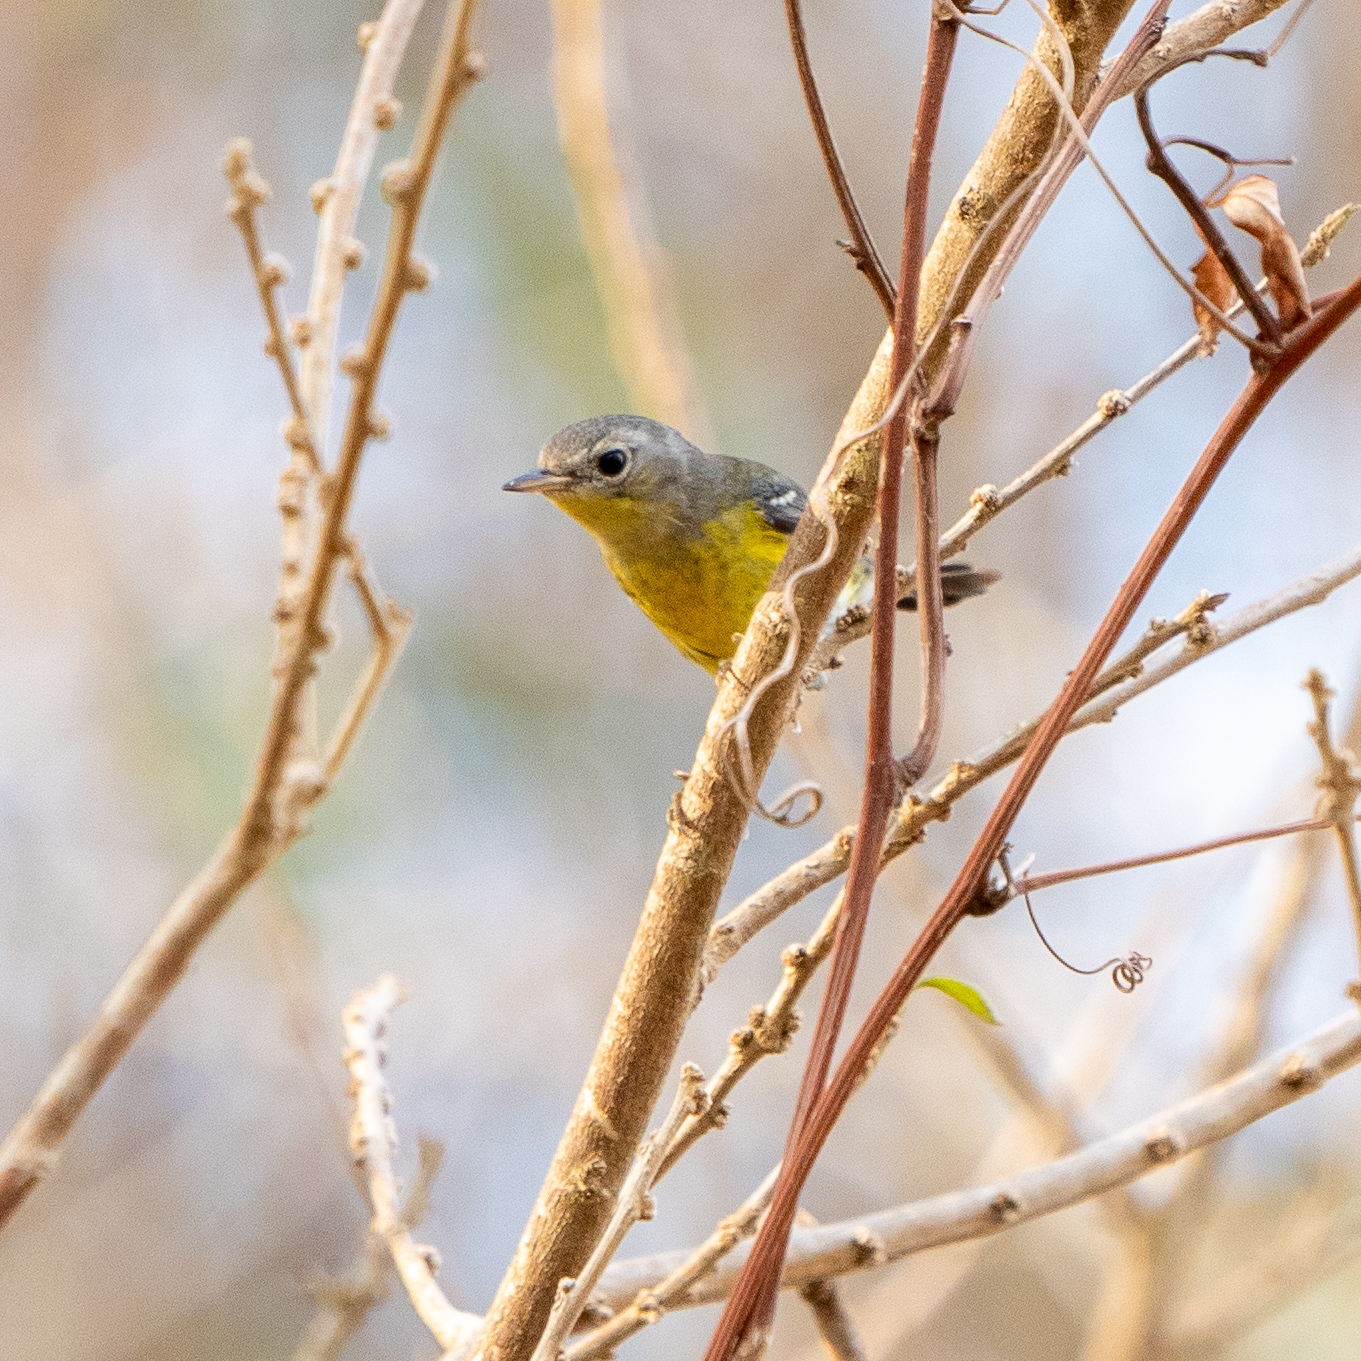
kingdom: Animalia
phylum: Chordata
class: Aves
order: Passeriformes
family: Parulidae
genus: Setophaga
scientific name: Setophaga magnolia
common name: Magnolia warbler
